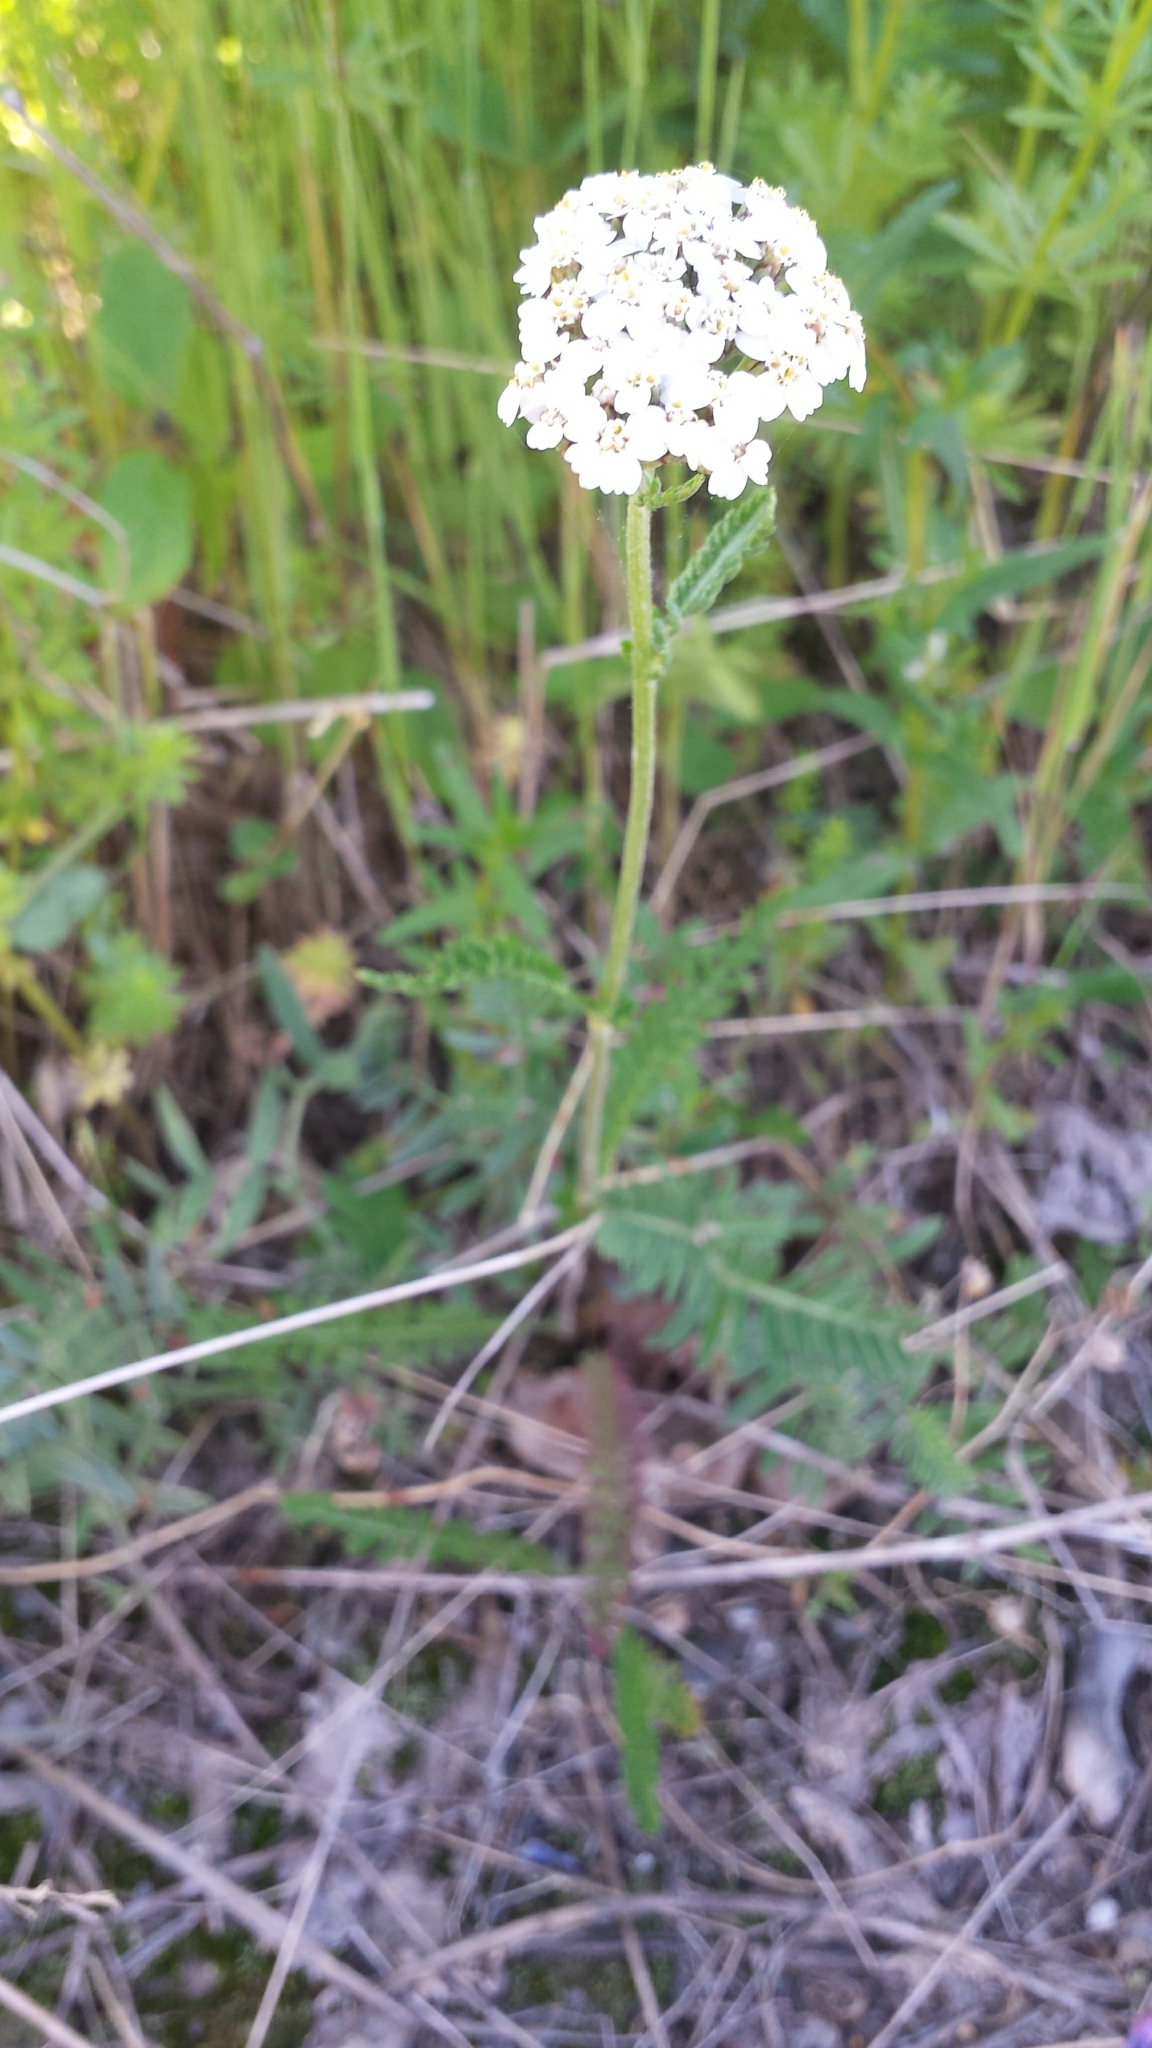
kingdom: Plantae
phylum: Tracheophyta
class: Magnoliopsida
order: Asterales
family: Asteraceae
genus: Achillea
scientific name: Achillea millefolium
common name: Yarrow
